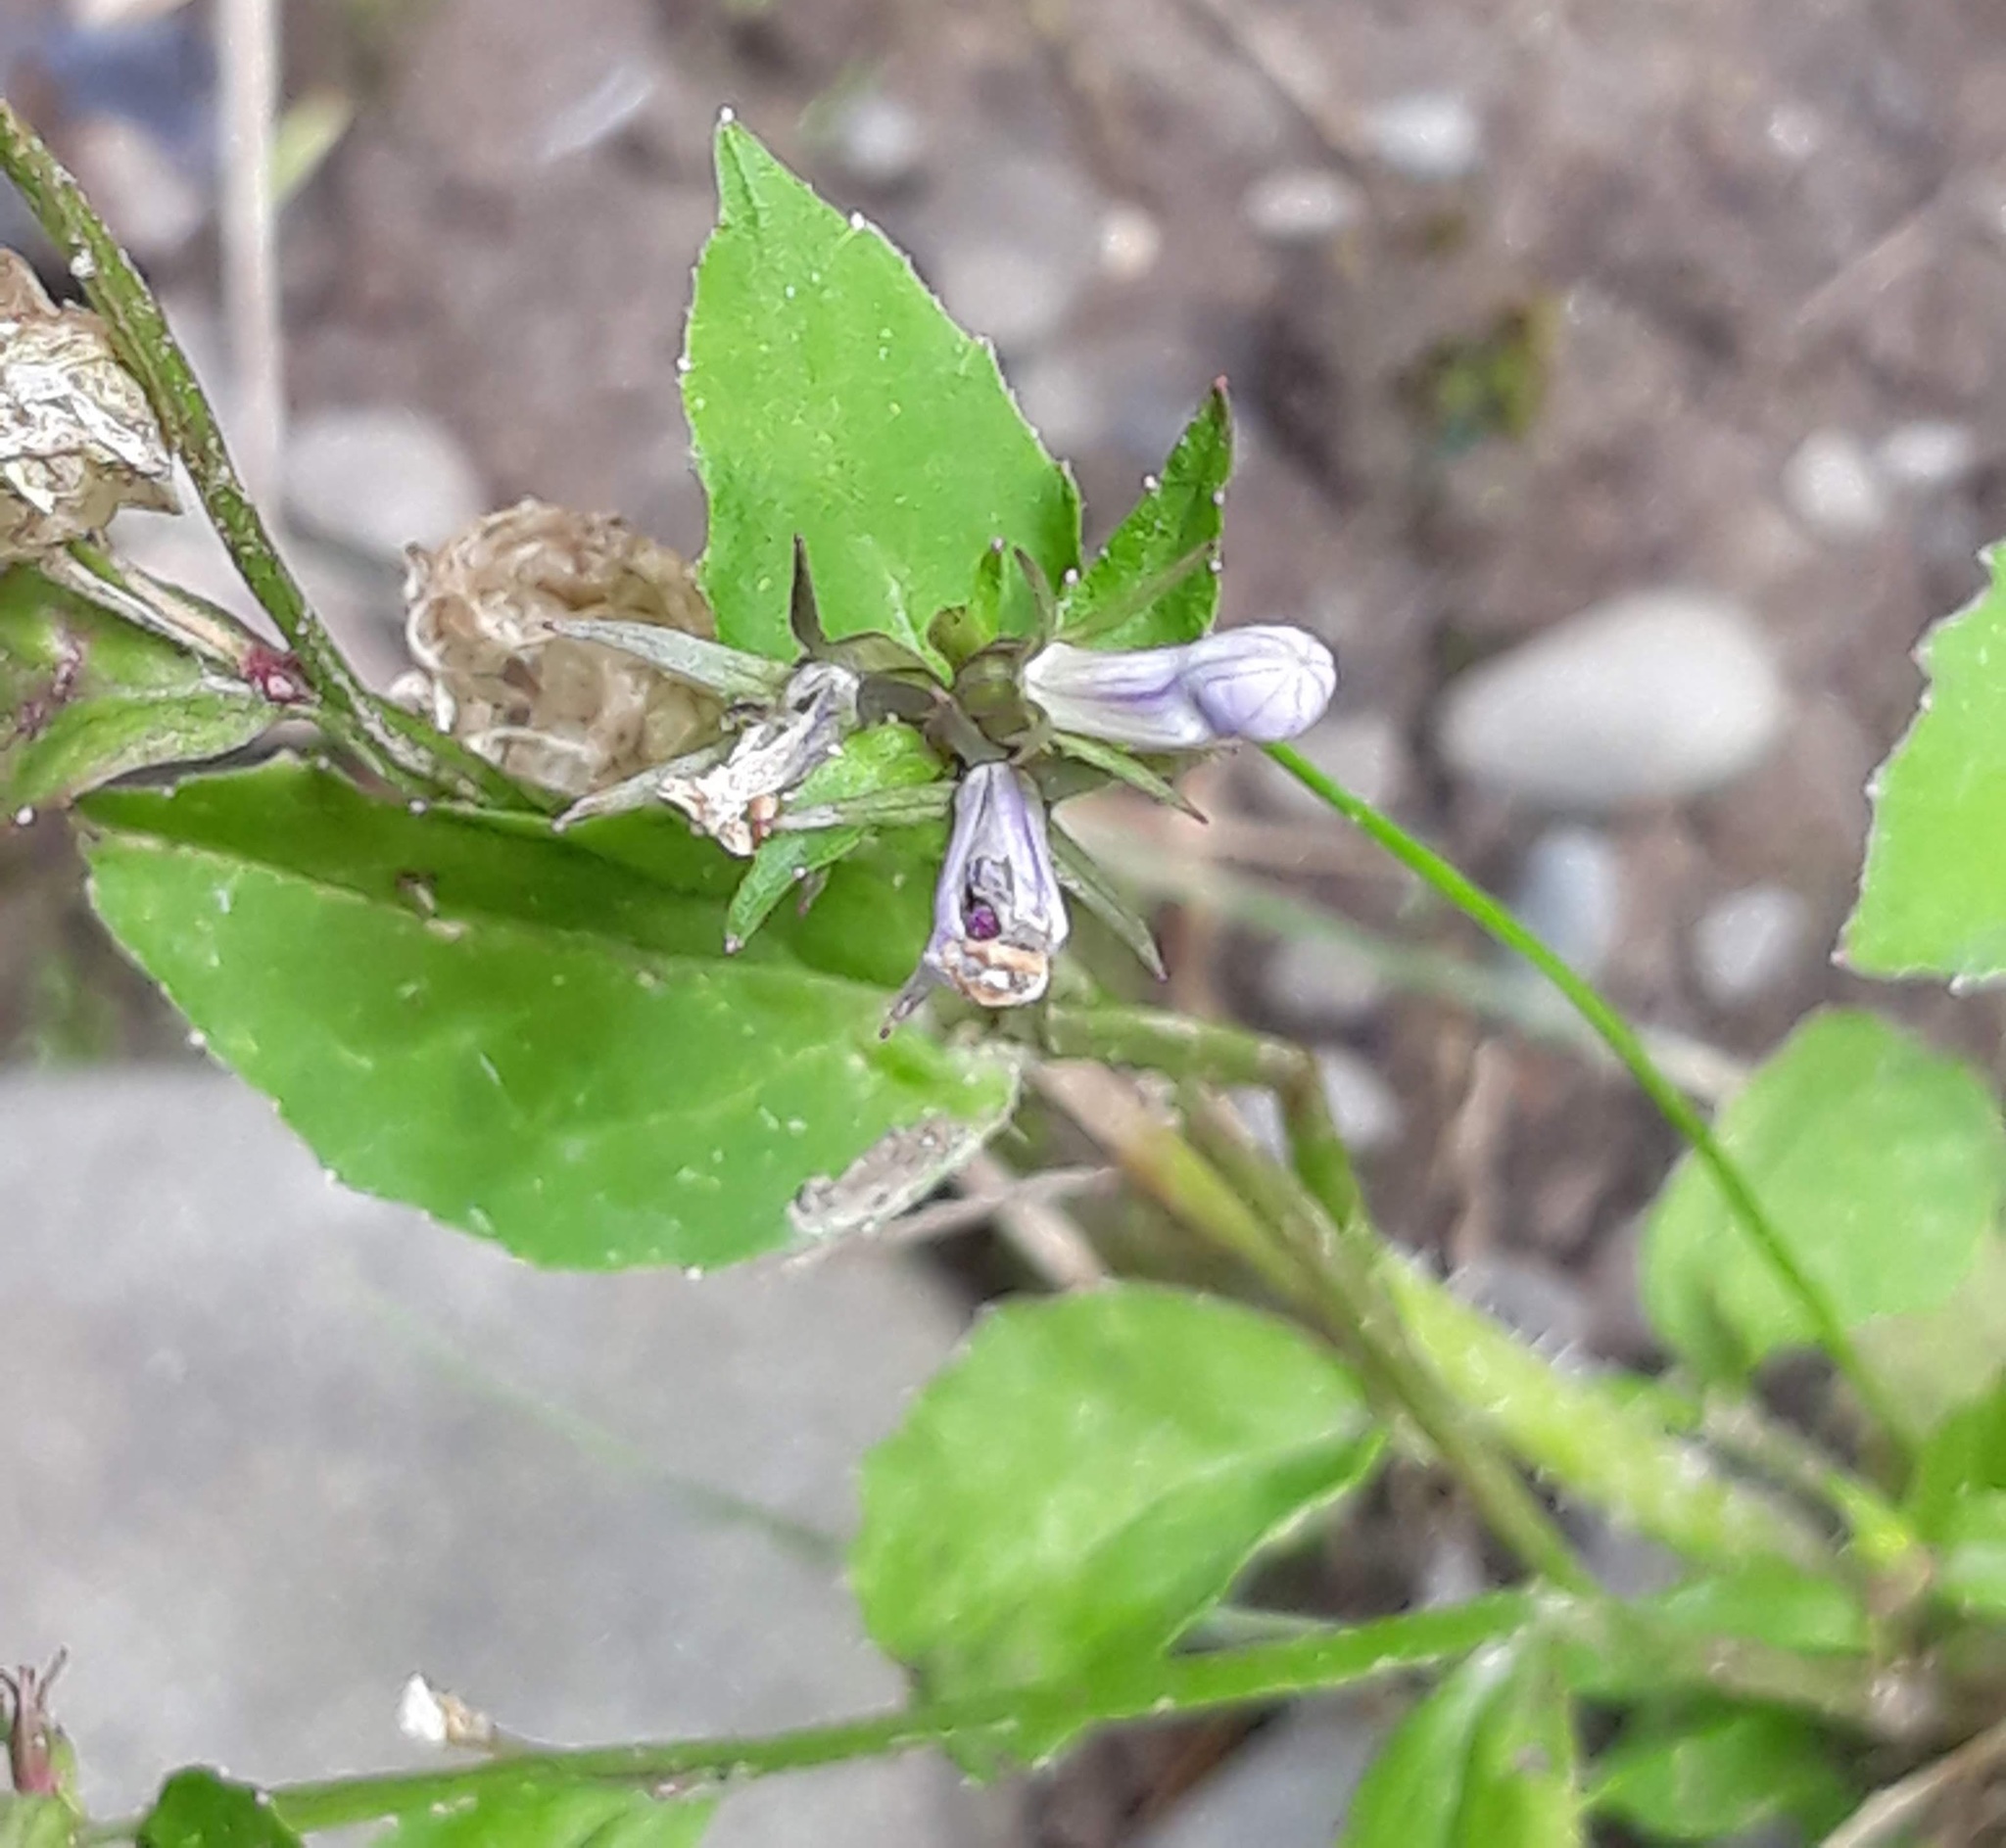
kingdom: Plantae
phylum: Tracheophyta
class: Magnoliopsida
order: Asterales
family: Campanulaceae
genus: Lobelia
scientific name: Lobelia siphilitica
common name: Great lobelia
